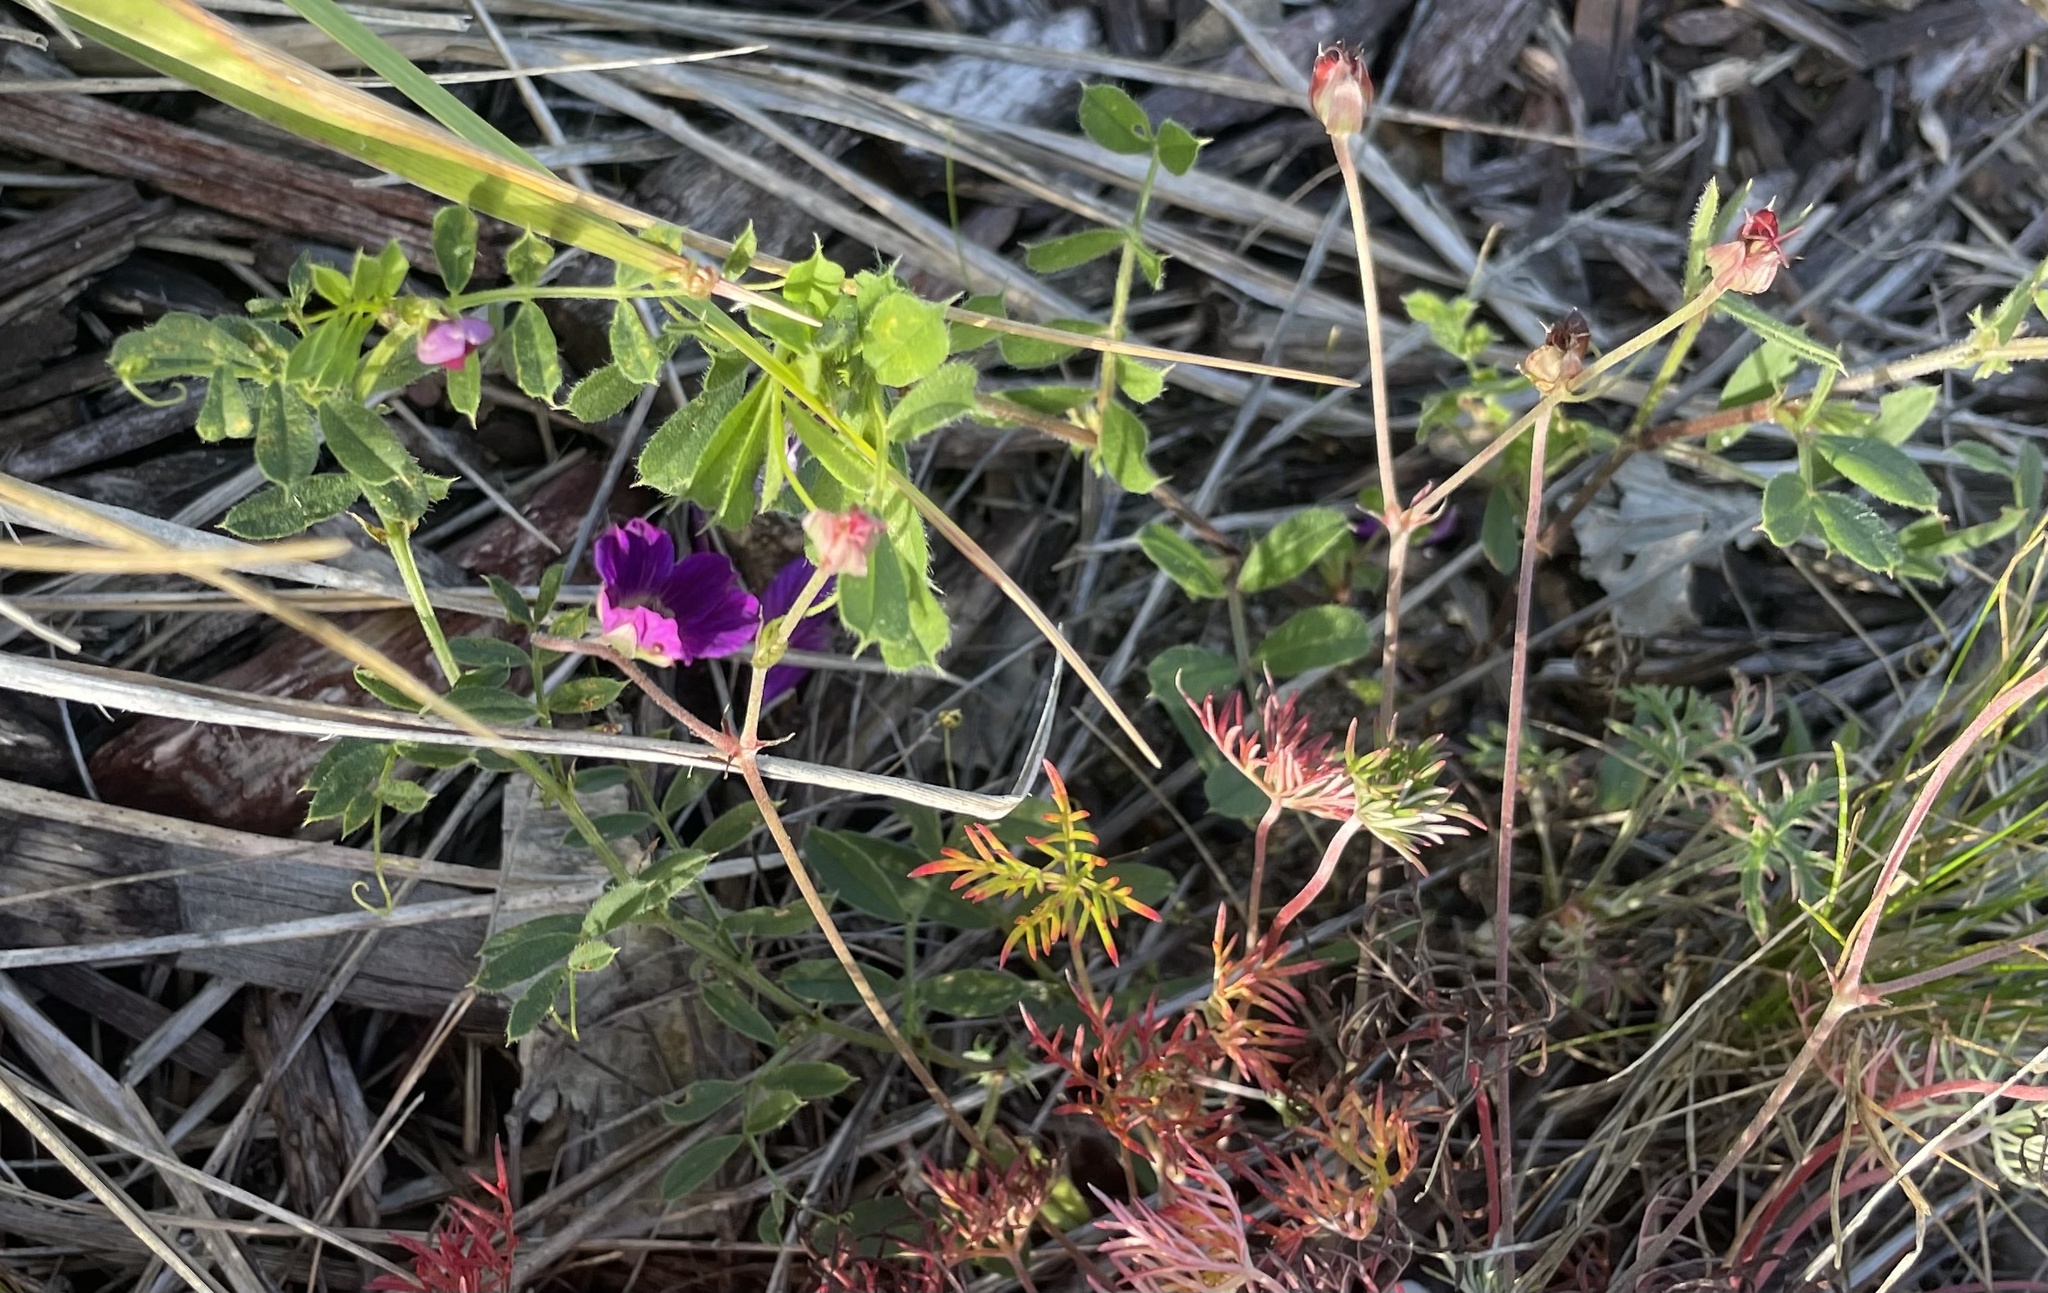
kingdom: Plantae
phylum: Tracheophyta
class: Magnoliopsida
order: Fabales
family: Fabaceae
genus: Vicia
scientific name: Vicia sativa
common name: Garden vetch
